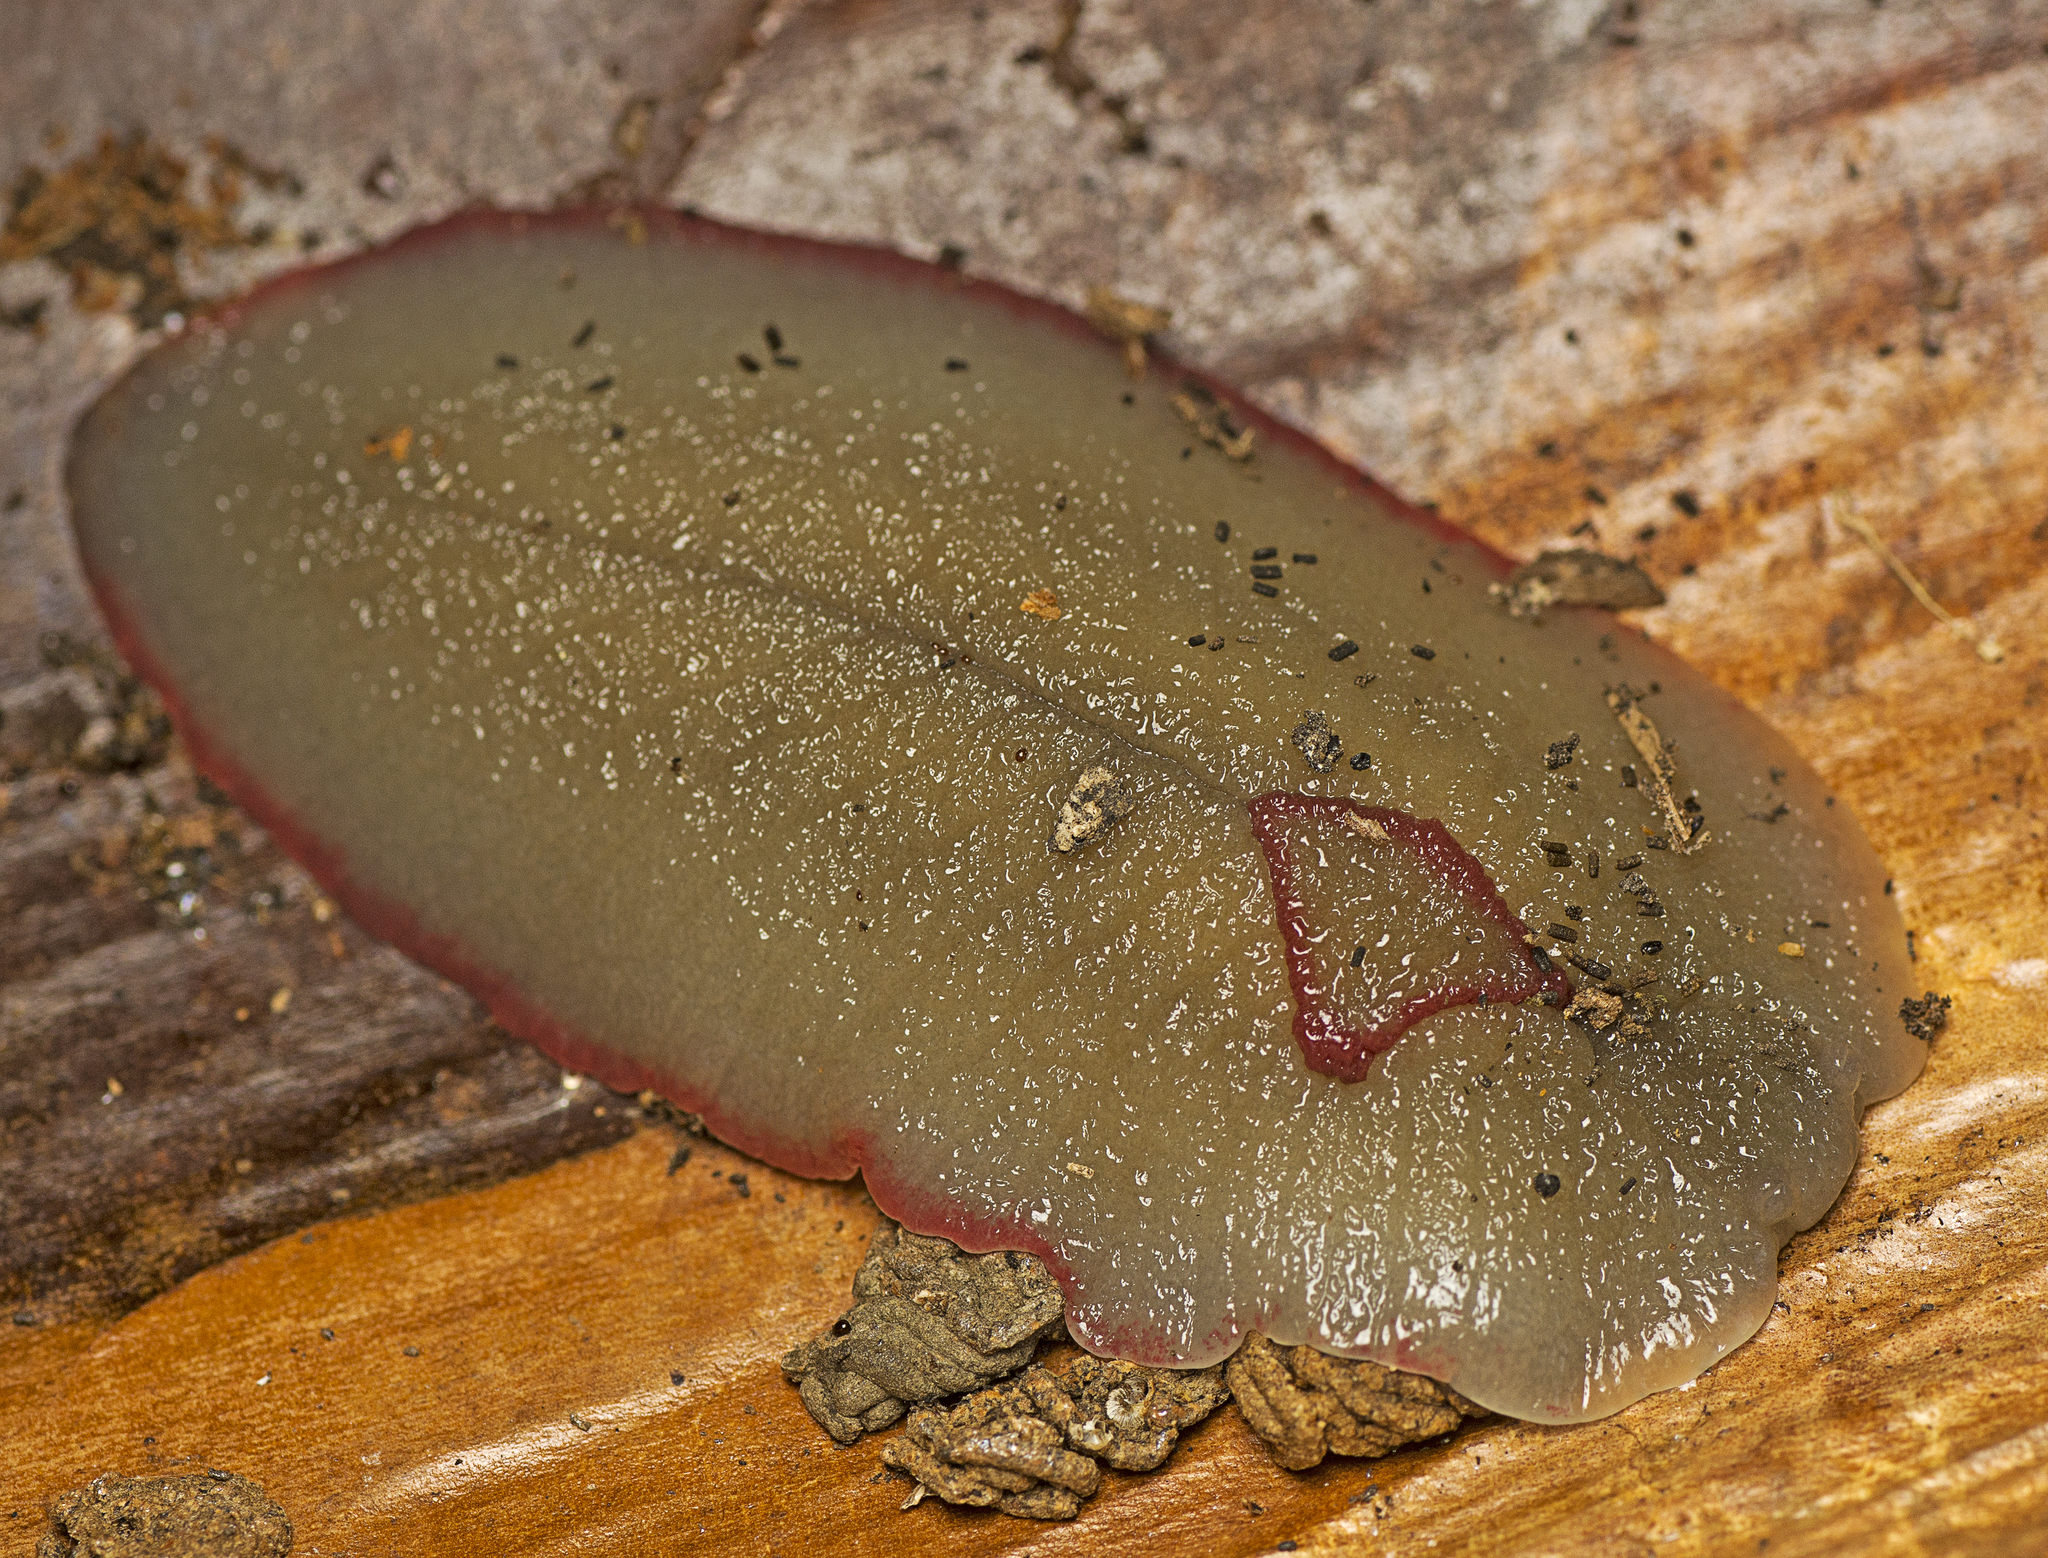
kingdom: Animalia
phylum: Mollusca
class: Gastropoda
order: Stylommatophora
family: Athoracophoridae
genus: Triboniophorus
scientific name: Triboniophorus graeffei
